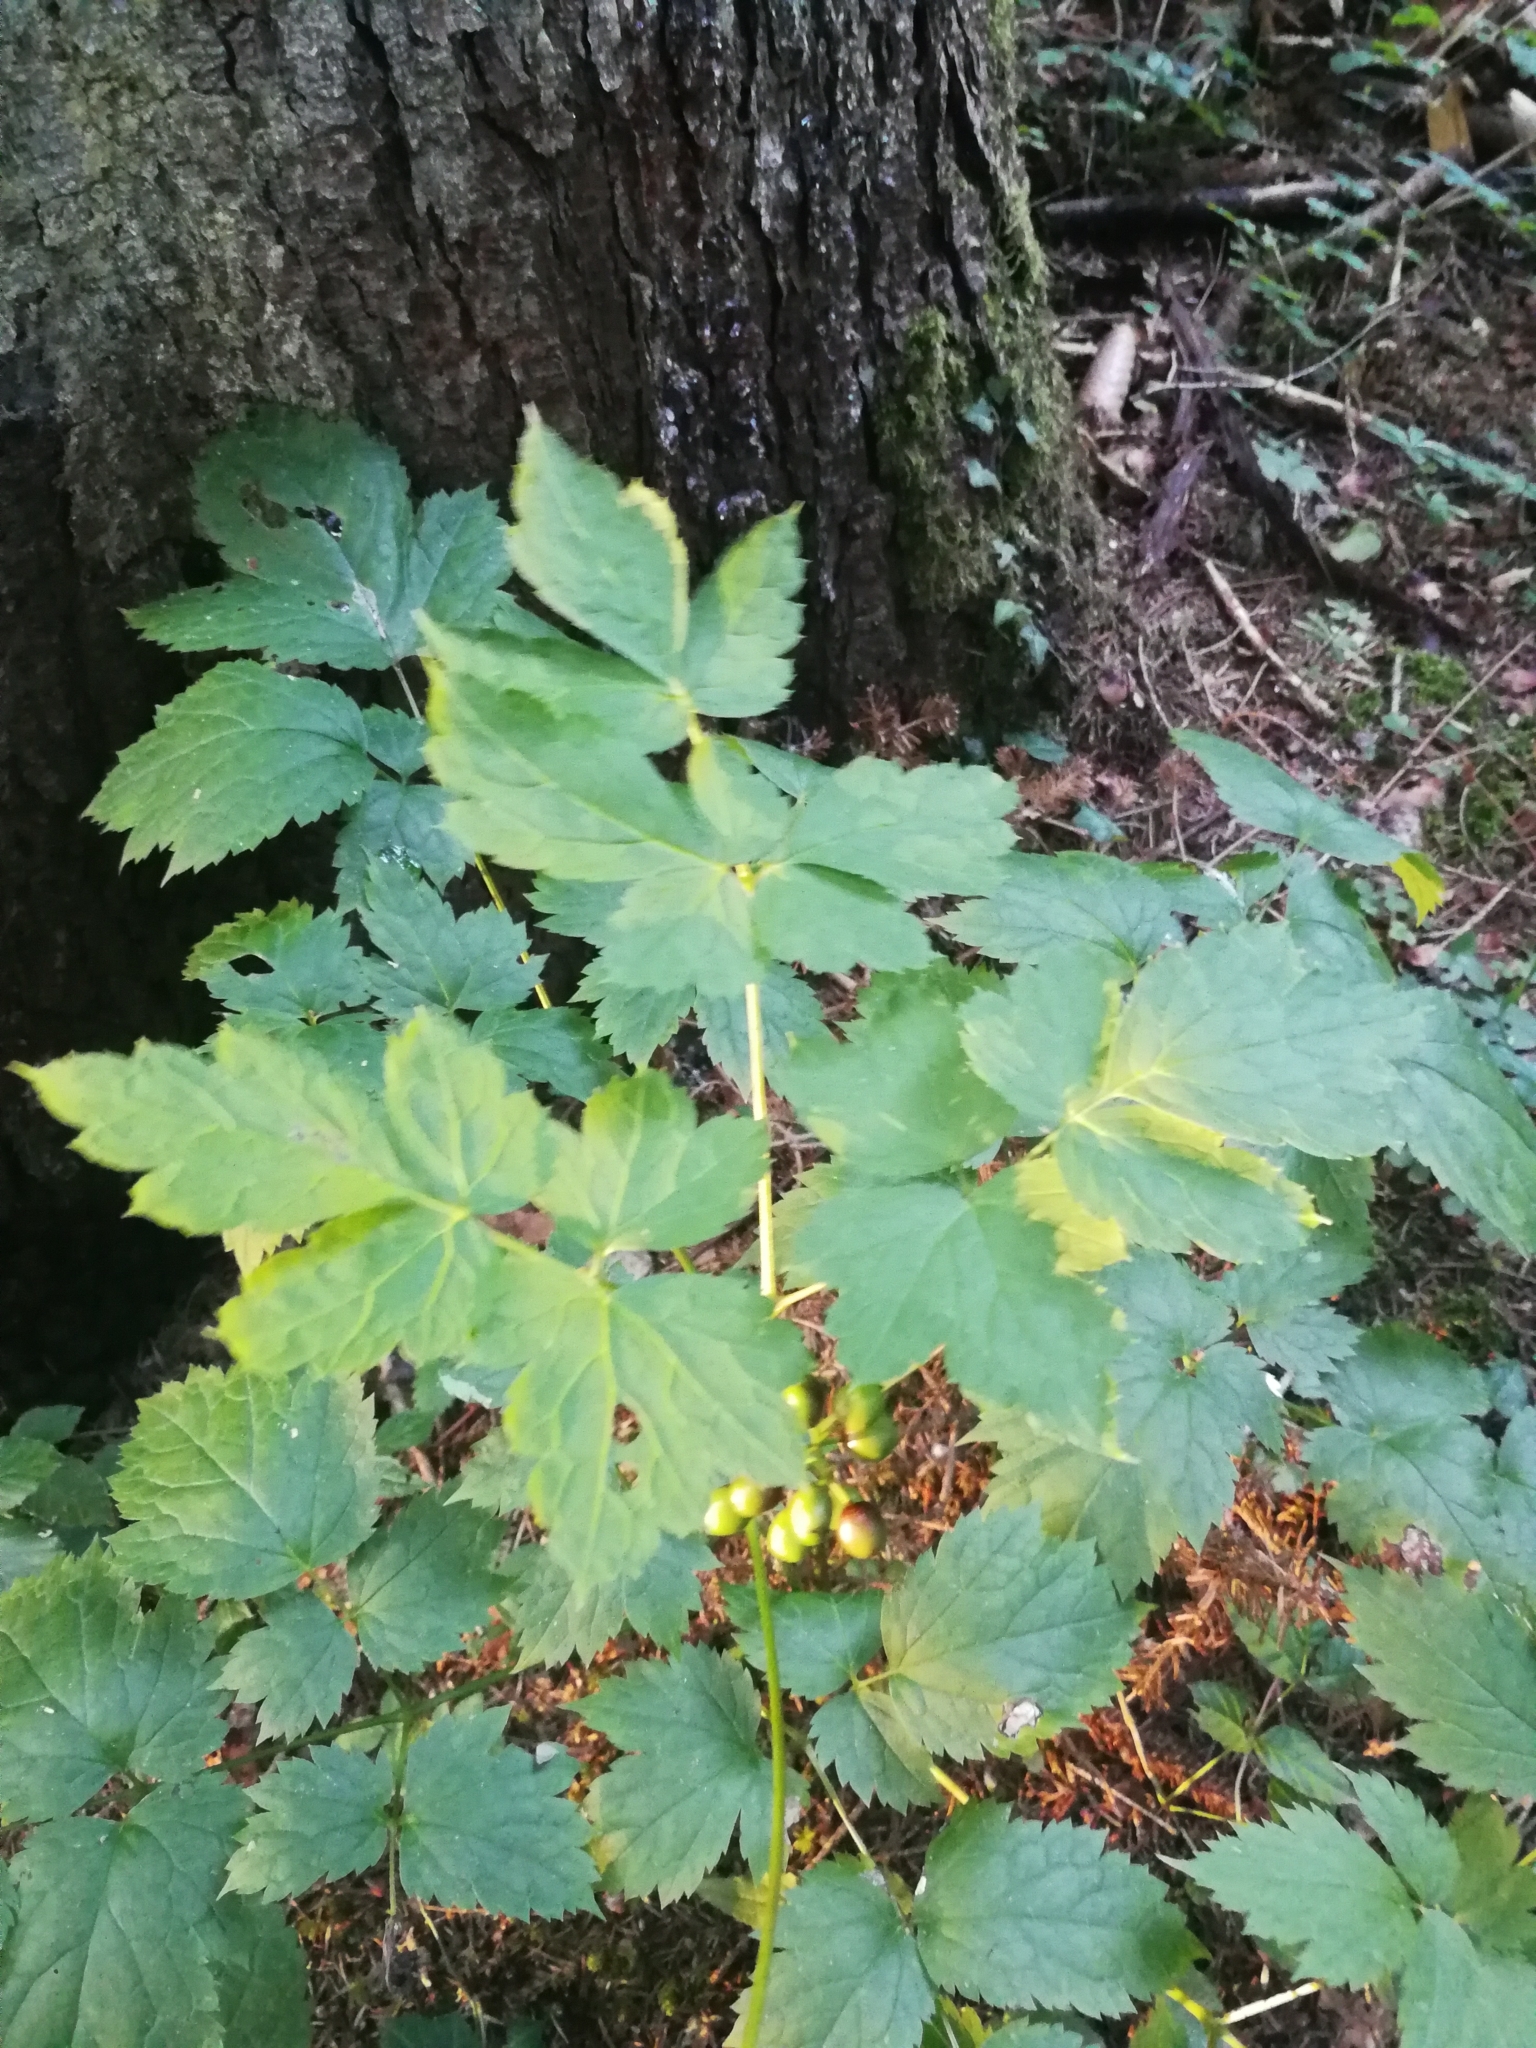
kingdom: Plantae
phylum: Tracheophyta
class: Magnoliopsida
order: Ranunculales
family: Ranunculaceae
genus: Actaea
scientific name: Actaea spicata
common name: Baneberry
